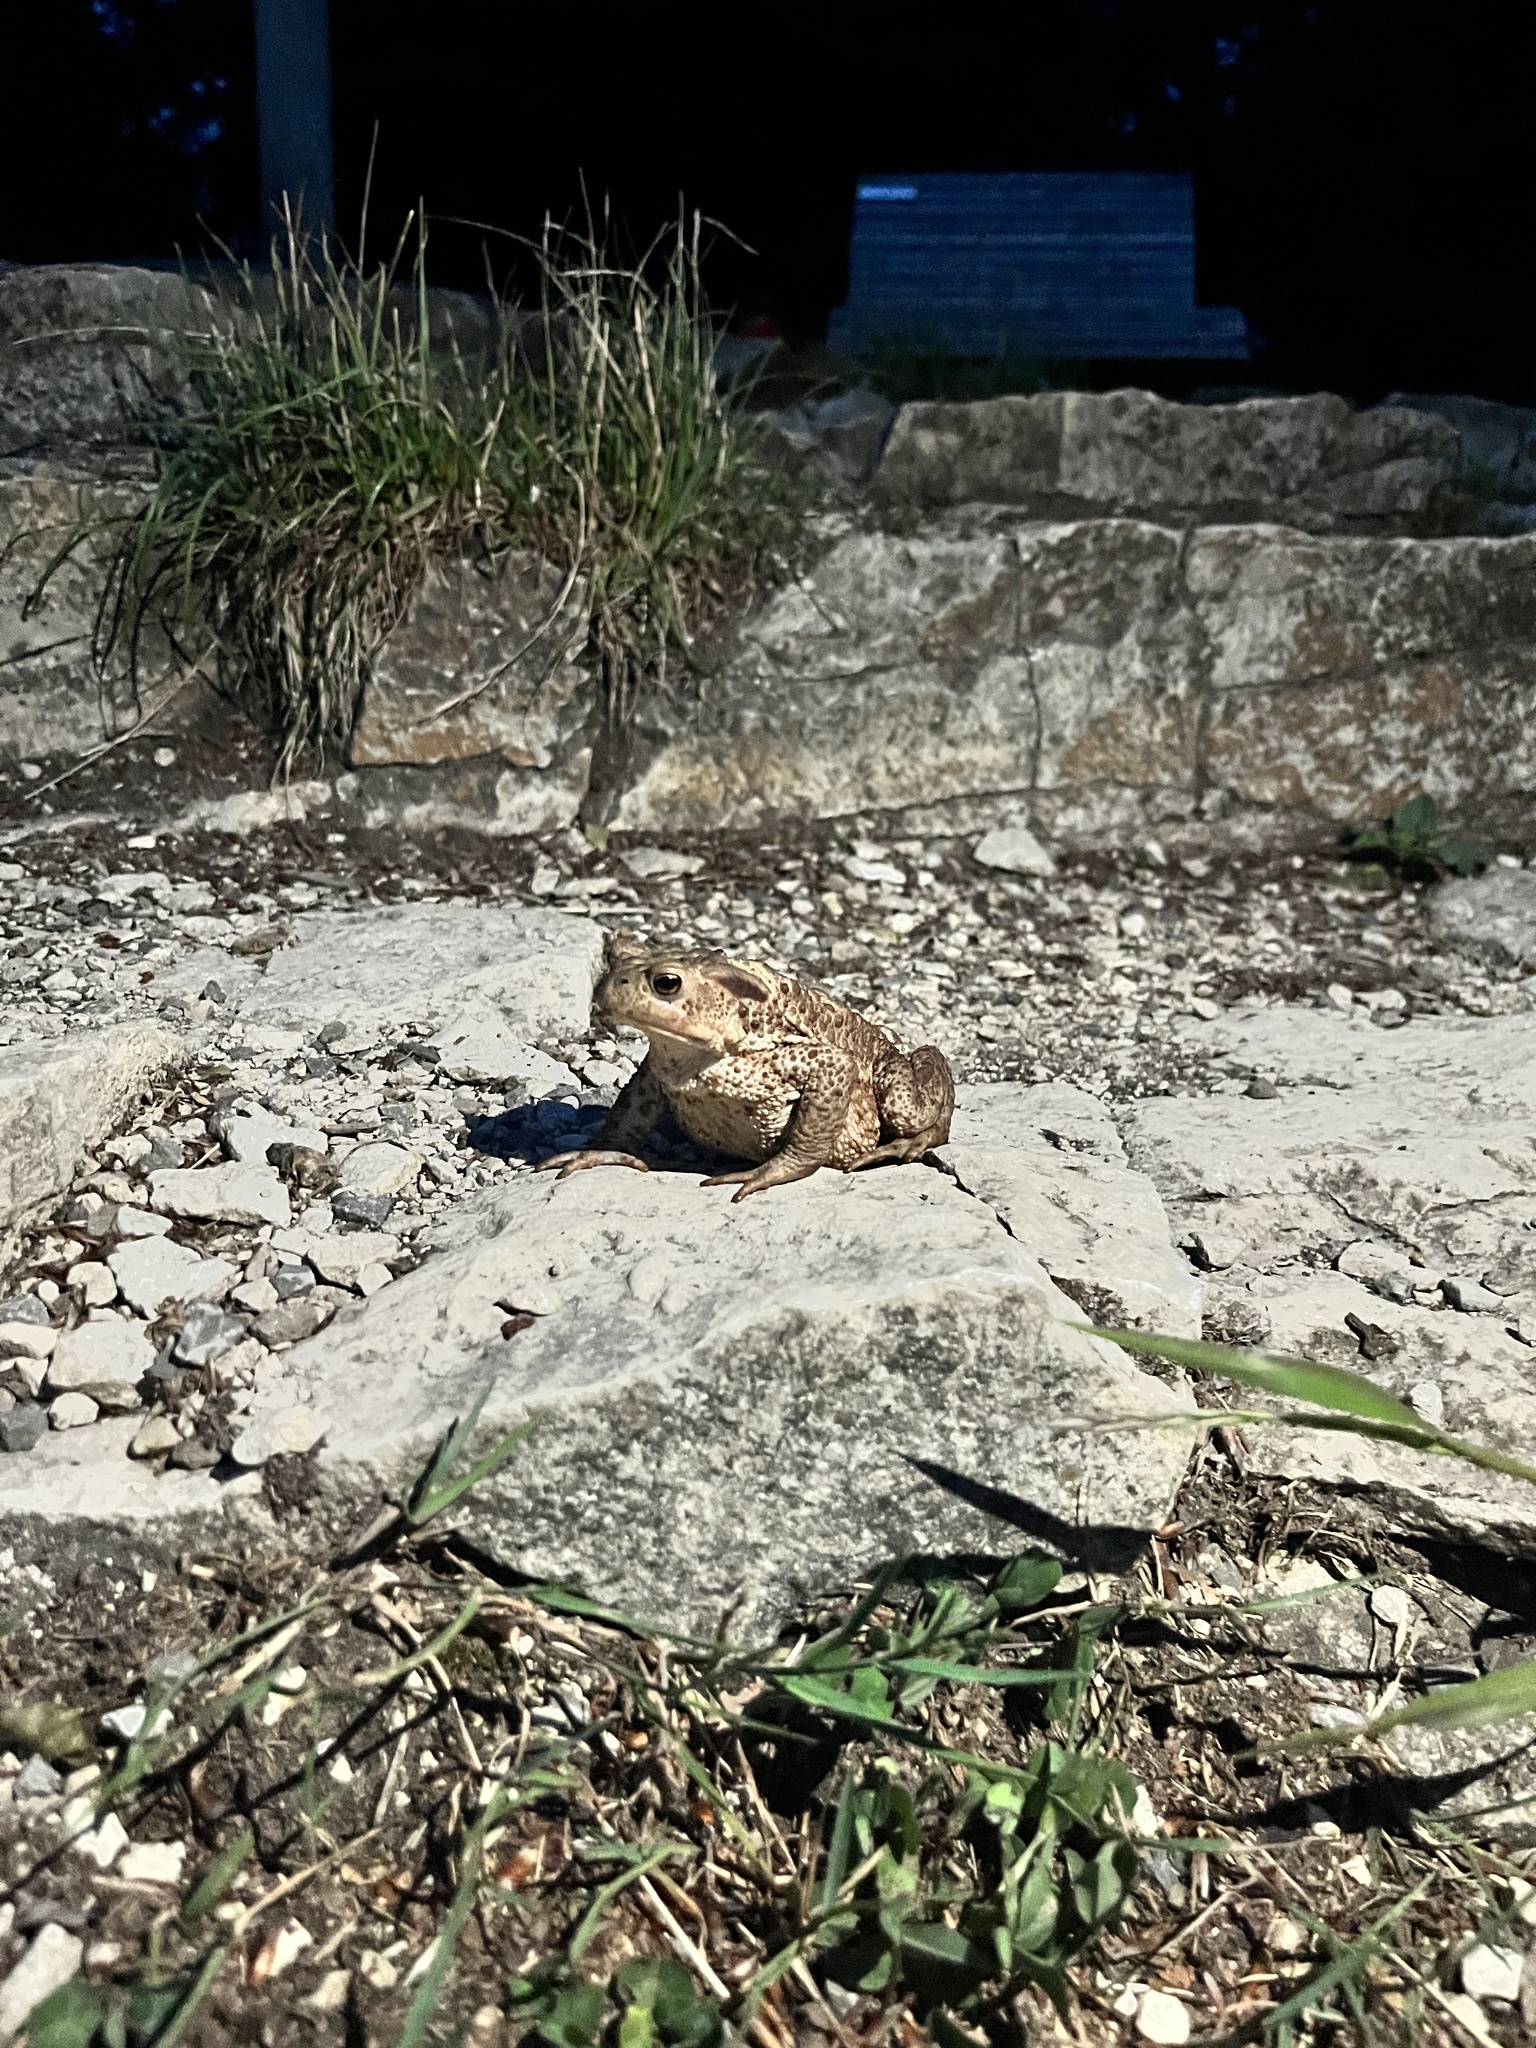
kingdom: Animalia
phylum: Chordata
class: Amphibia
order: Anura
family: Bufonidae
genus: Bufo
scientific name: Bufo bufo
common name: Common toad
